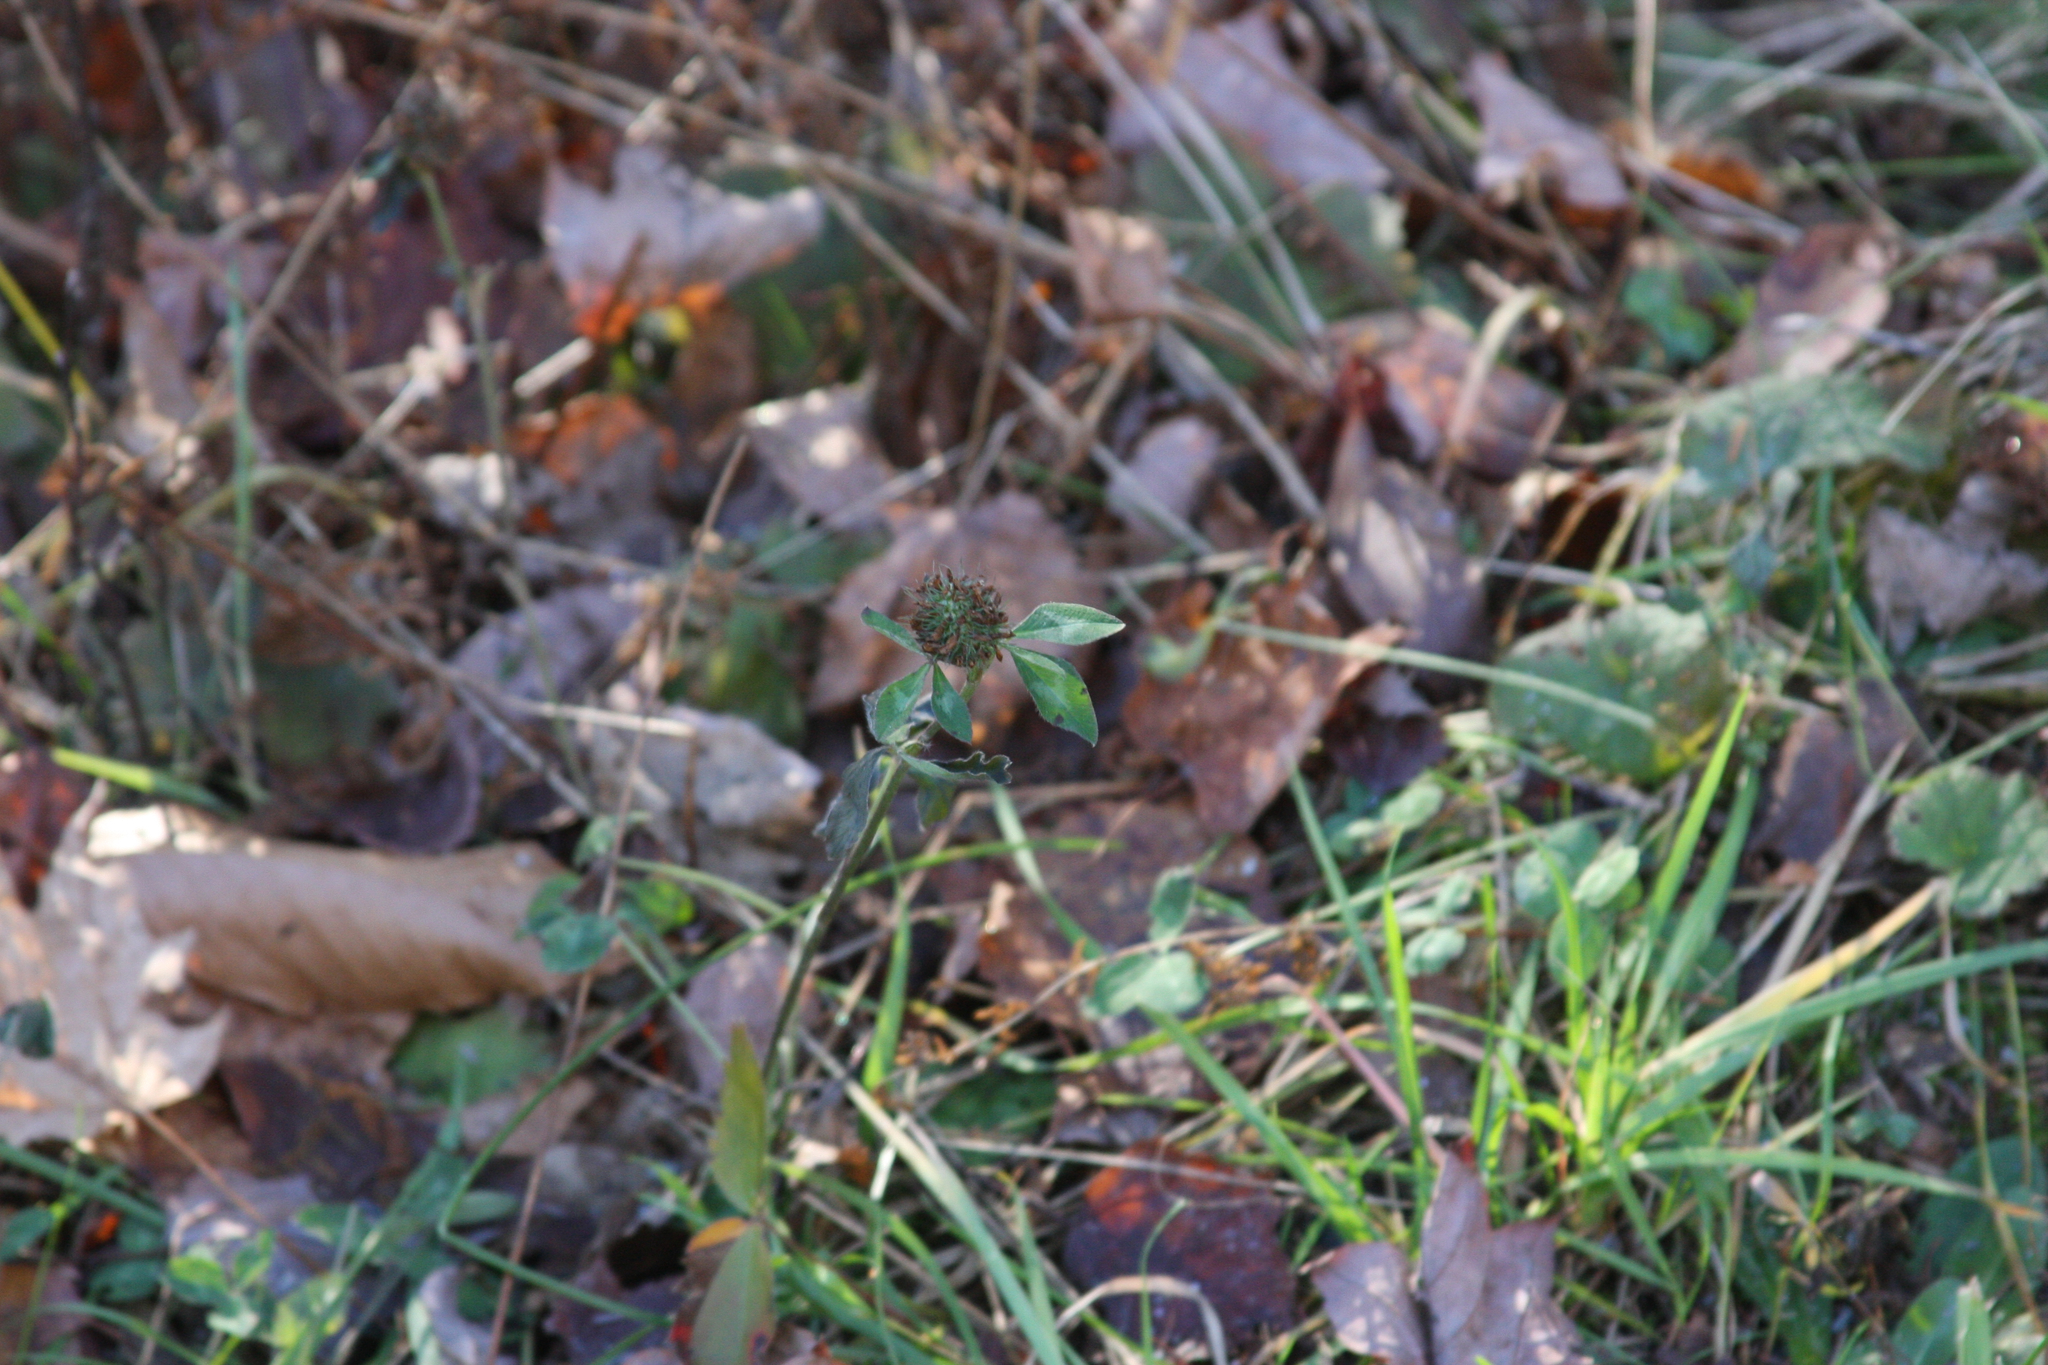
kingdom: Plantae
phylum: Tracheophyta
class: Magnoliopsida
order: Fabales
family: Fabaceae
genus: Trifolium
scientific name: Trifolium pratense
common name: Red clover
